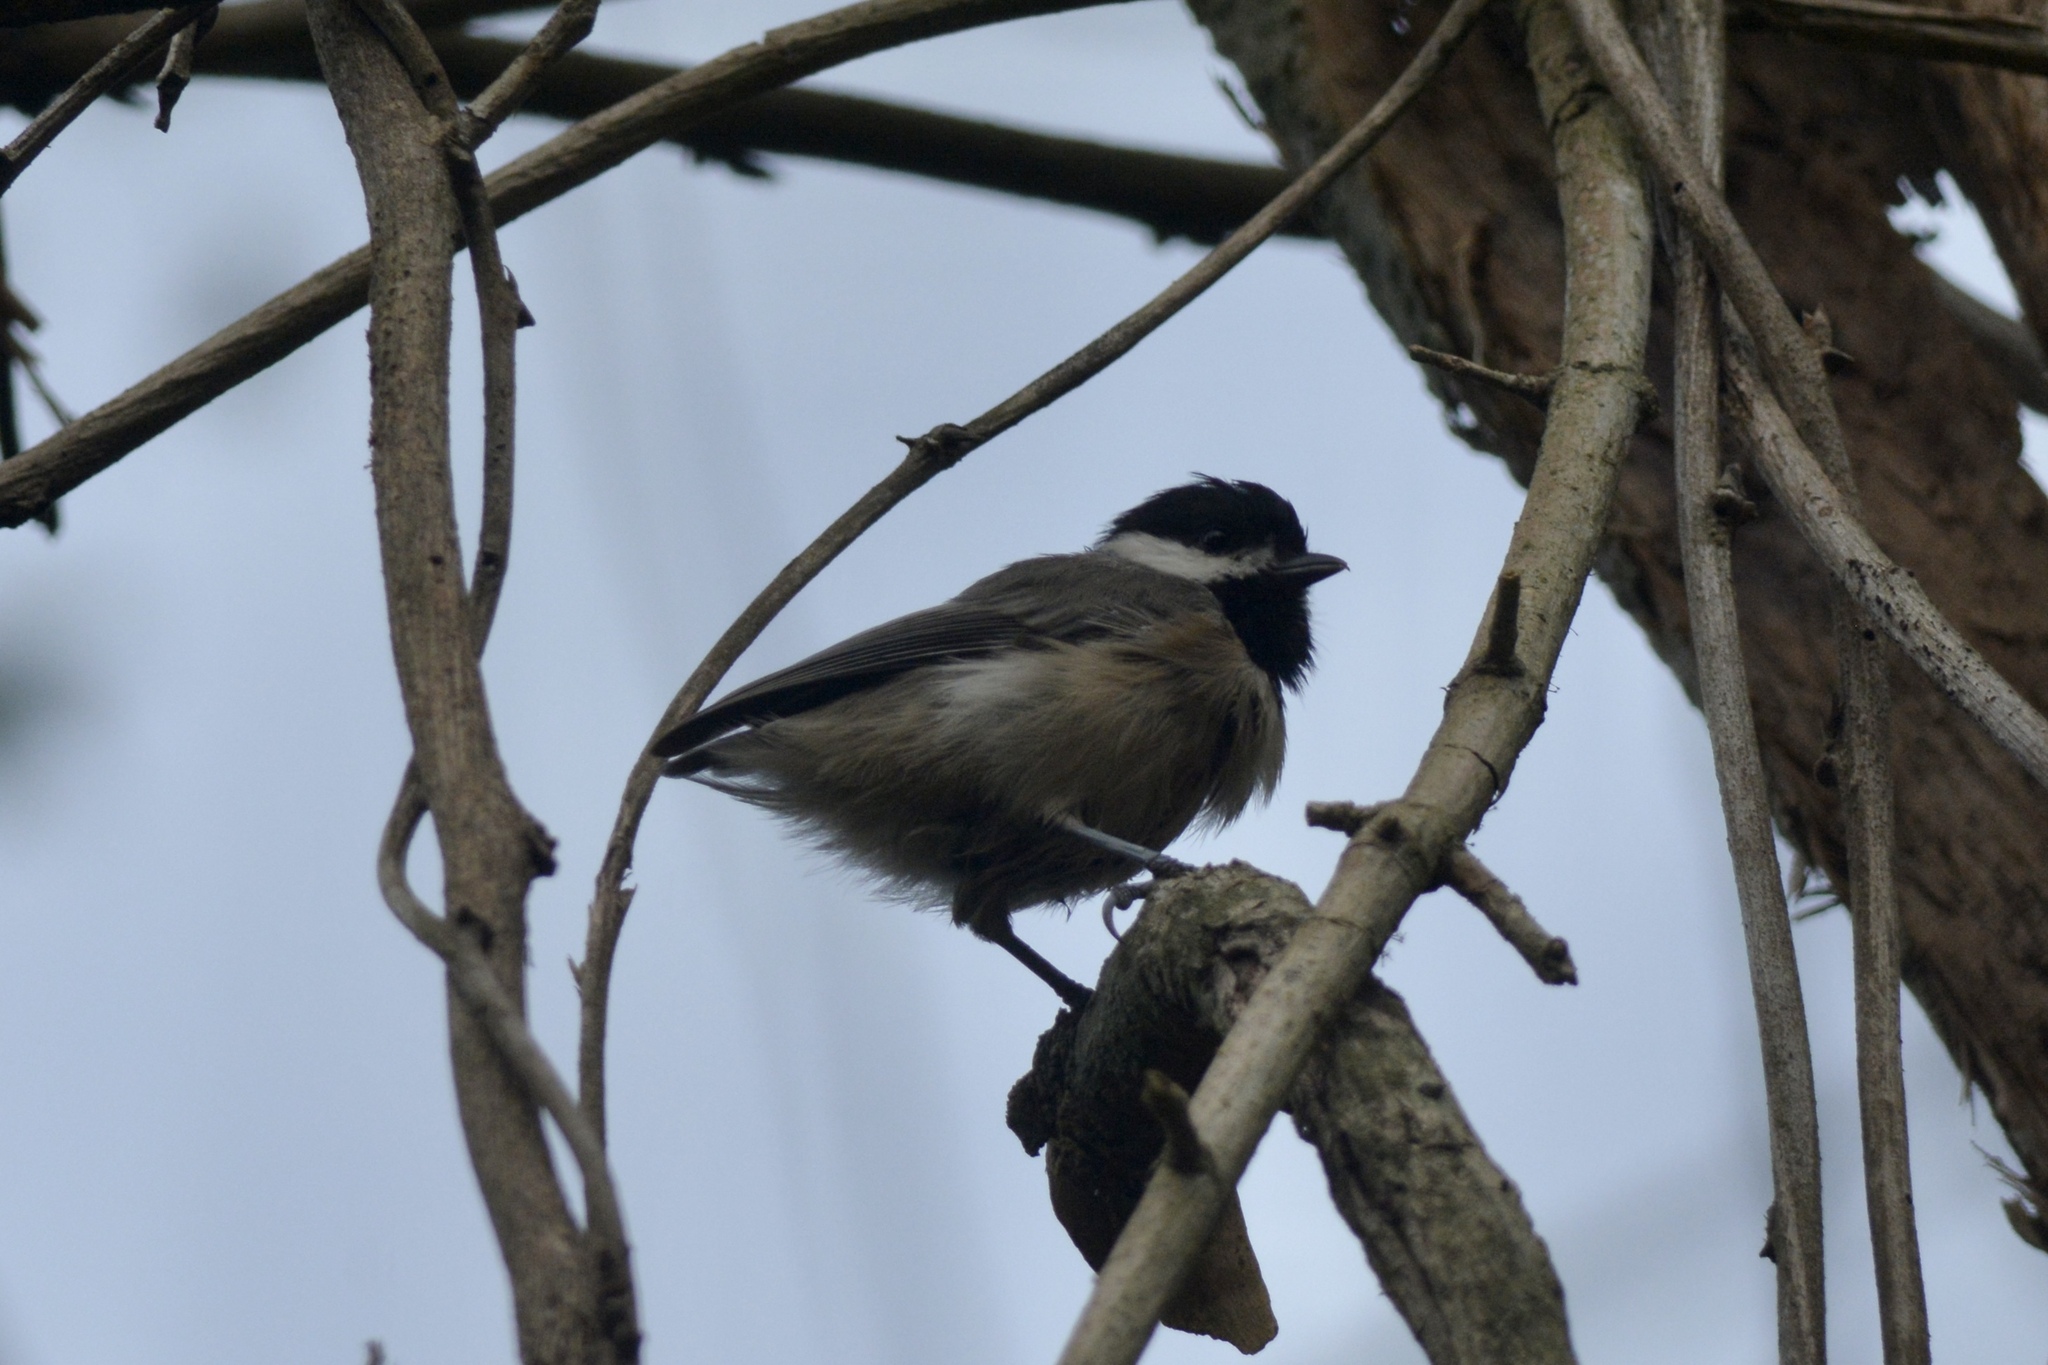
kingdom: Animalia
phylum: Chordata
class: Aves
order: Passeriformes
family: Paridae
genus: Poecile
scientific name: Poecile carolinensis
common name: Carolina chickadee
